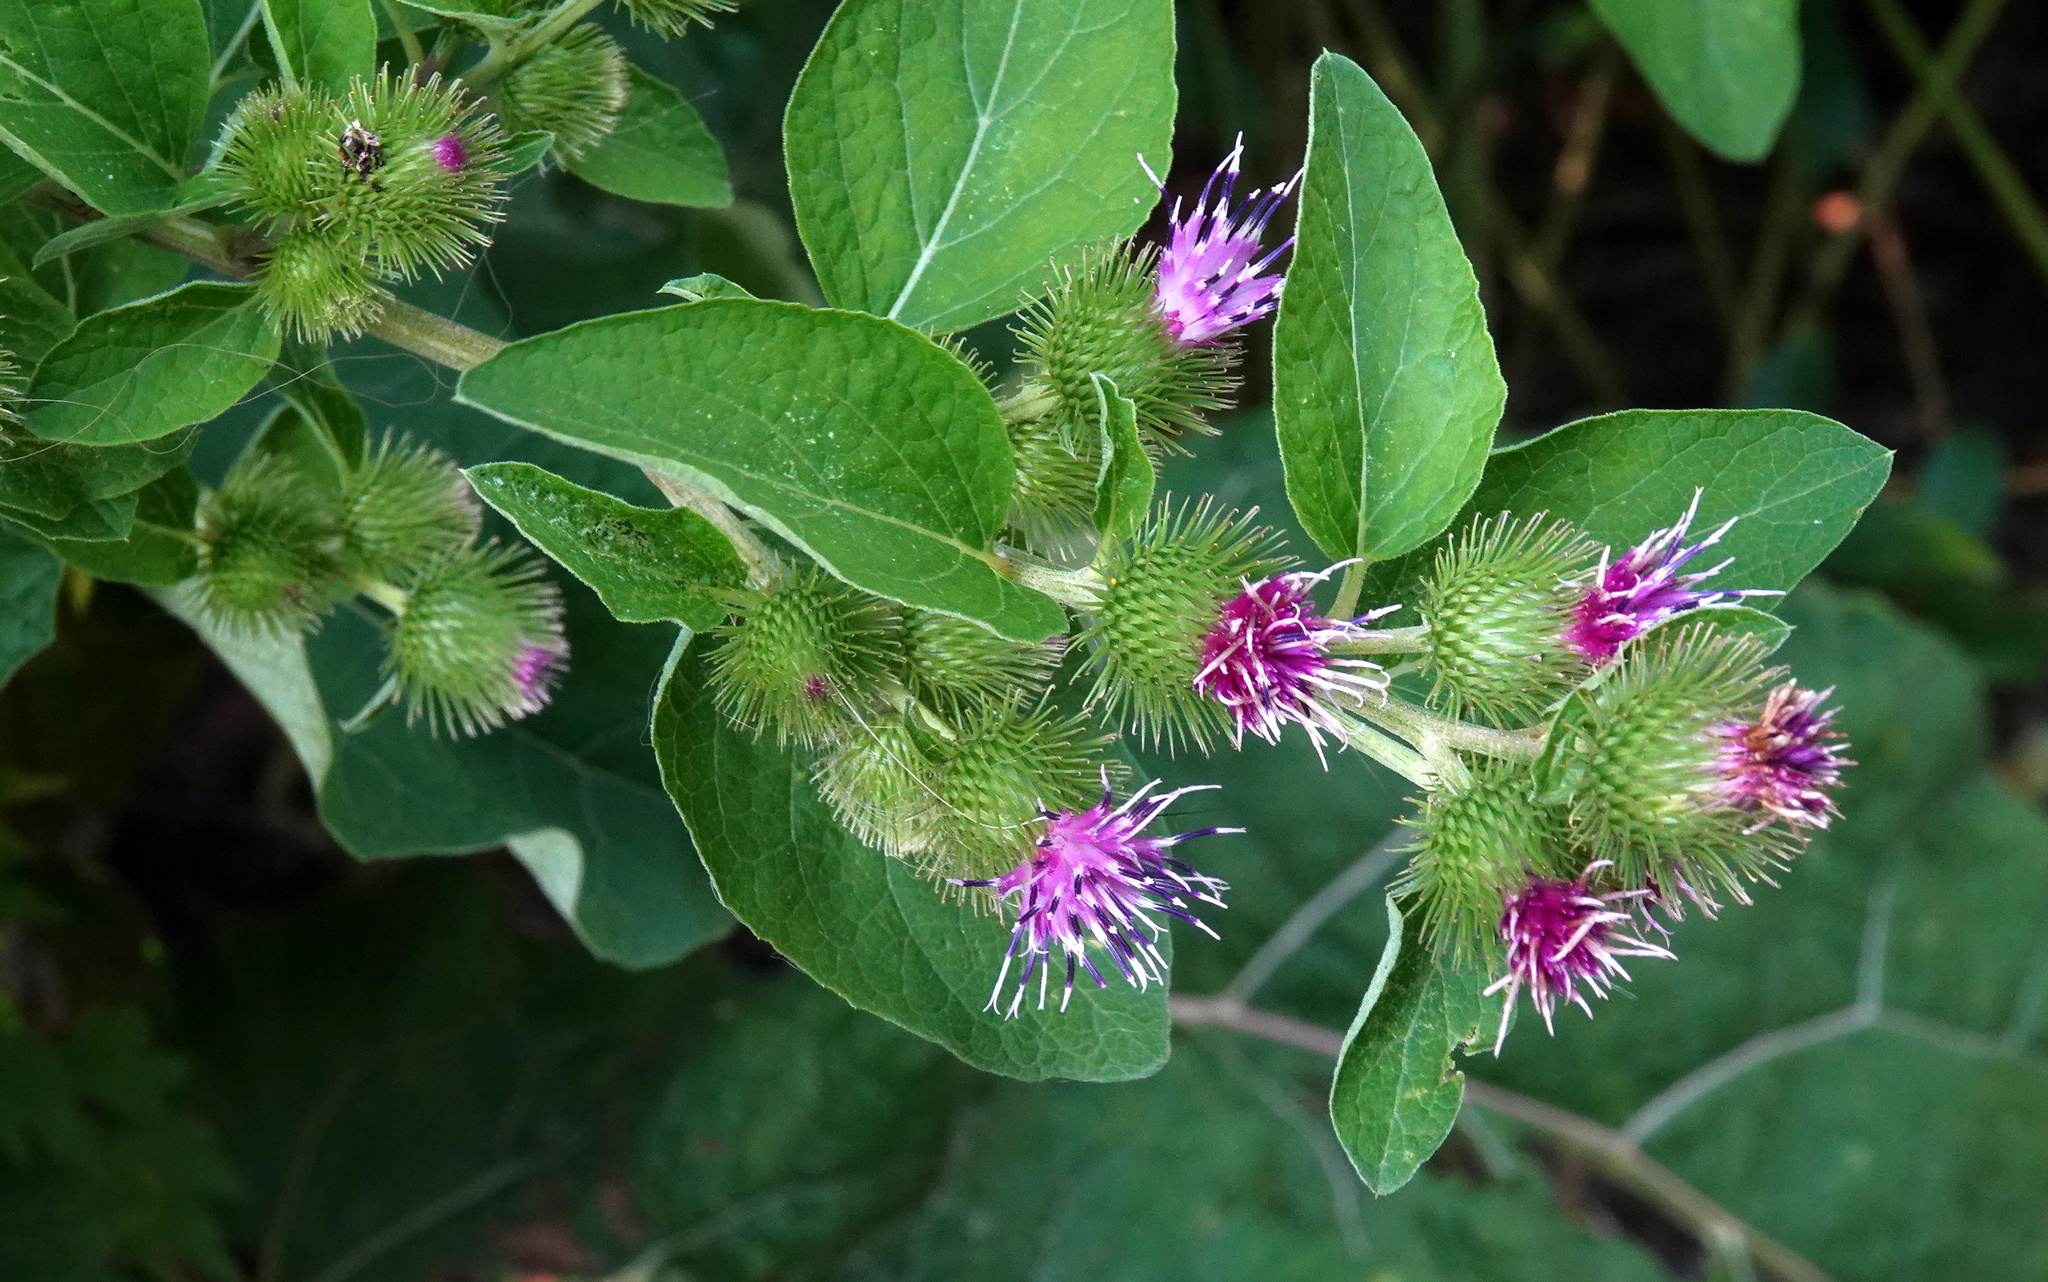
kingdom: Plantae
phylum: Tracheophyta
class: Magnoliopsida
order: Asterales
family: Asteraceae
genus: Arctium
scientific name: Arctium minus
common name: Lesser burdock
